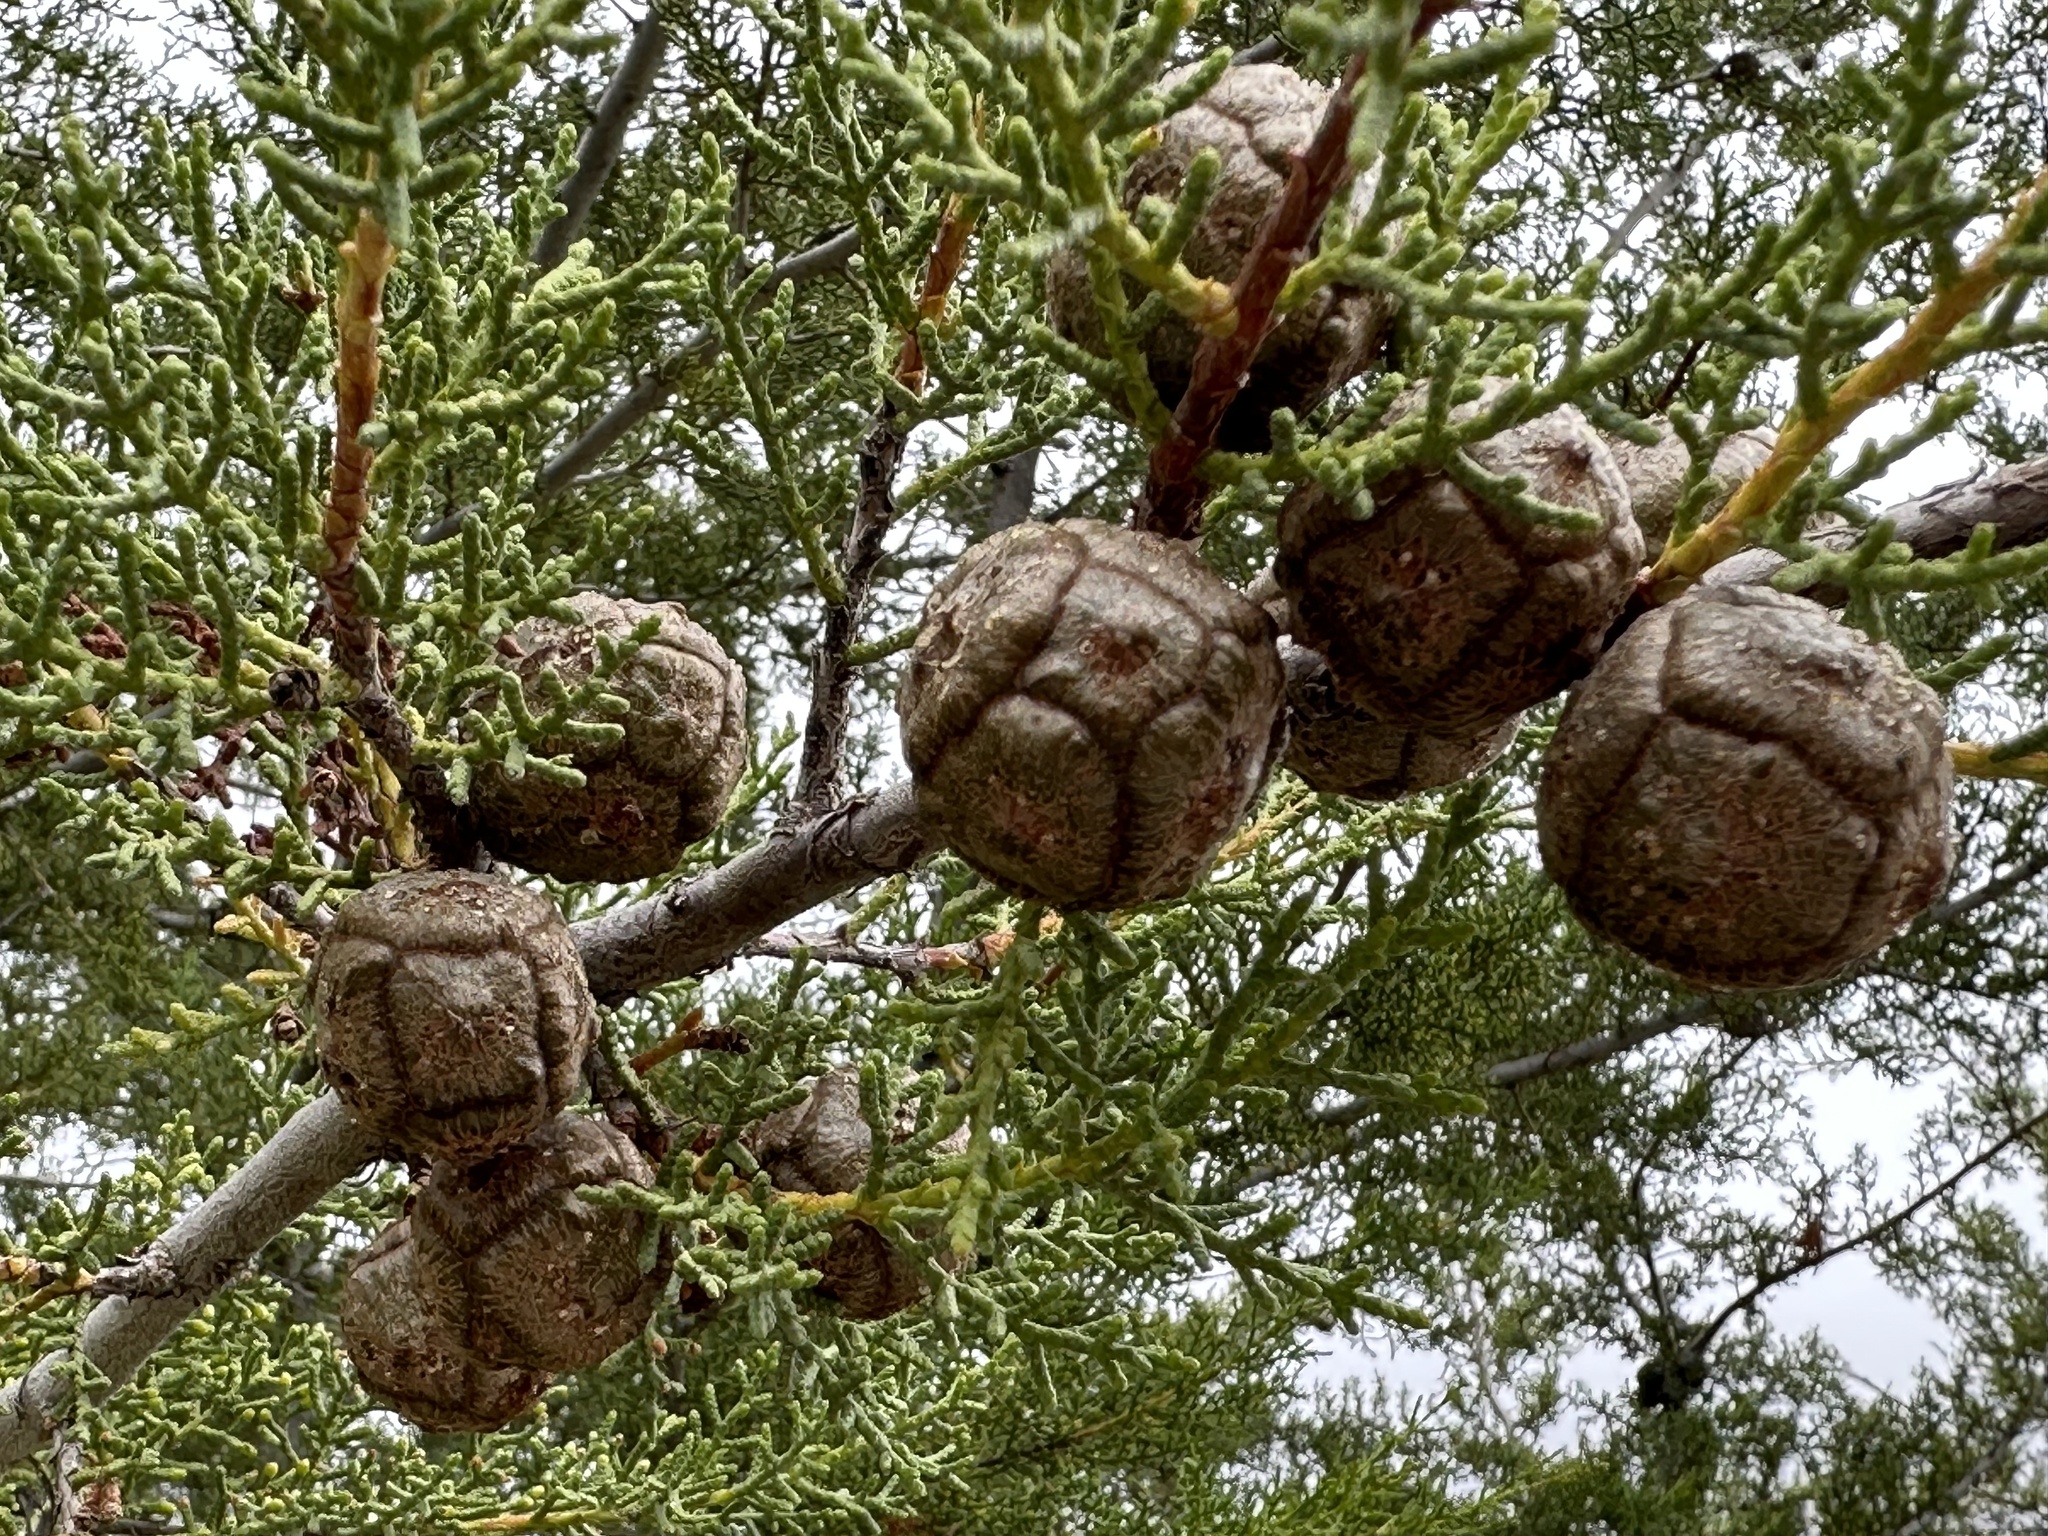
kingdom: Plantae
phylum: Tracheophyta
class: Pinopsida
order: Pinales
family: Cupressaceae
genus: Cupressus
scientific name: Cupressus guadalupensis
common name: Forbes cypress
